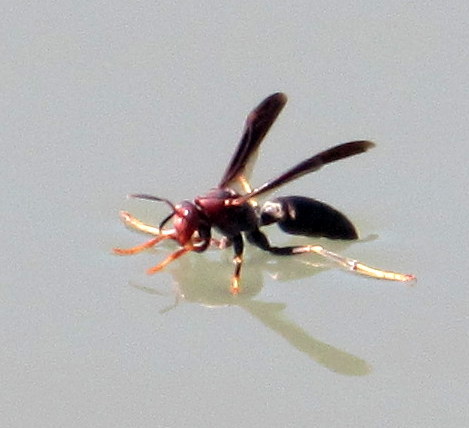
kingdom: Animalia
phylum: Arthropoda
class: Insecta
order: Hymenoptera
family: Eumenidae
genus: Polistes
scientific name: Polistes metricus
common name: Metric paper wasp
